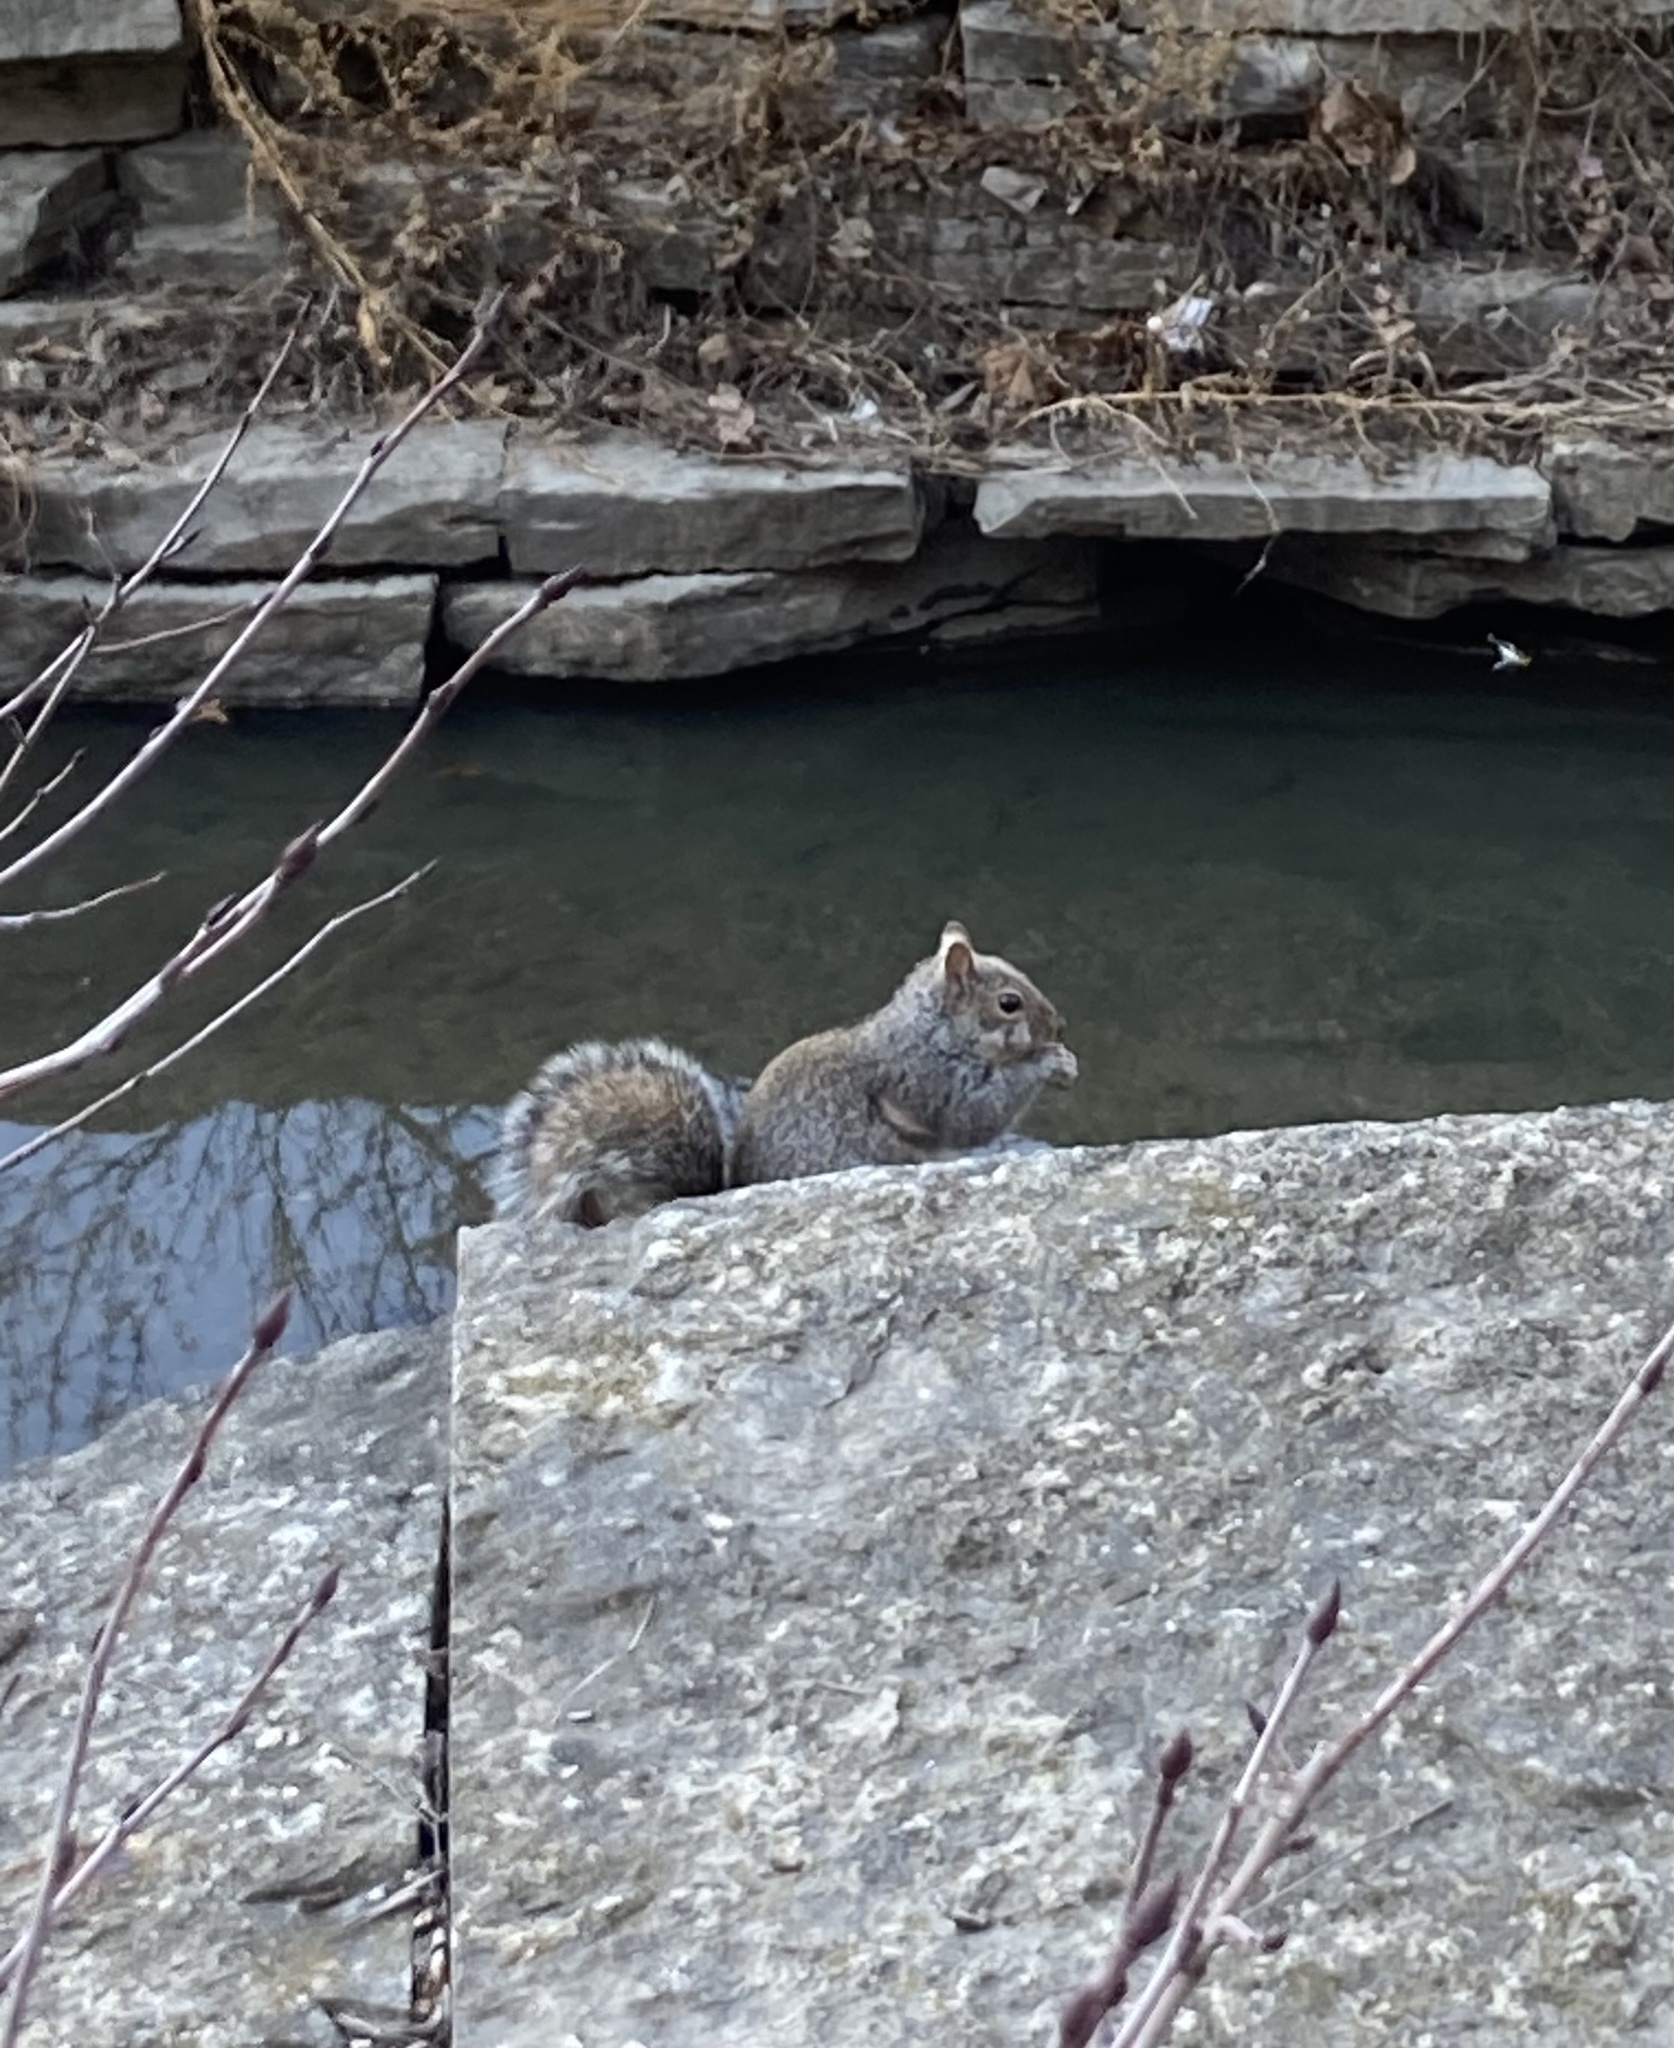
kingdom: Animalia
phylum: Chordata
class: Mammalia
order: Rodentia
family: Sciuridae
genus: Sciurus
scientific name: Sciurus carolinensis
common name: Eastern gray squirrel
